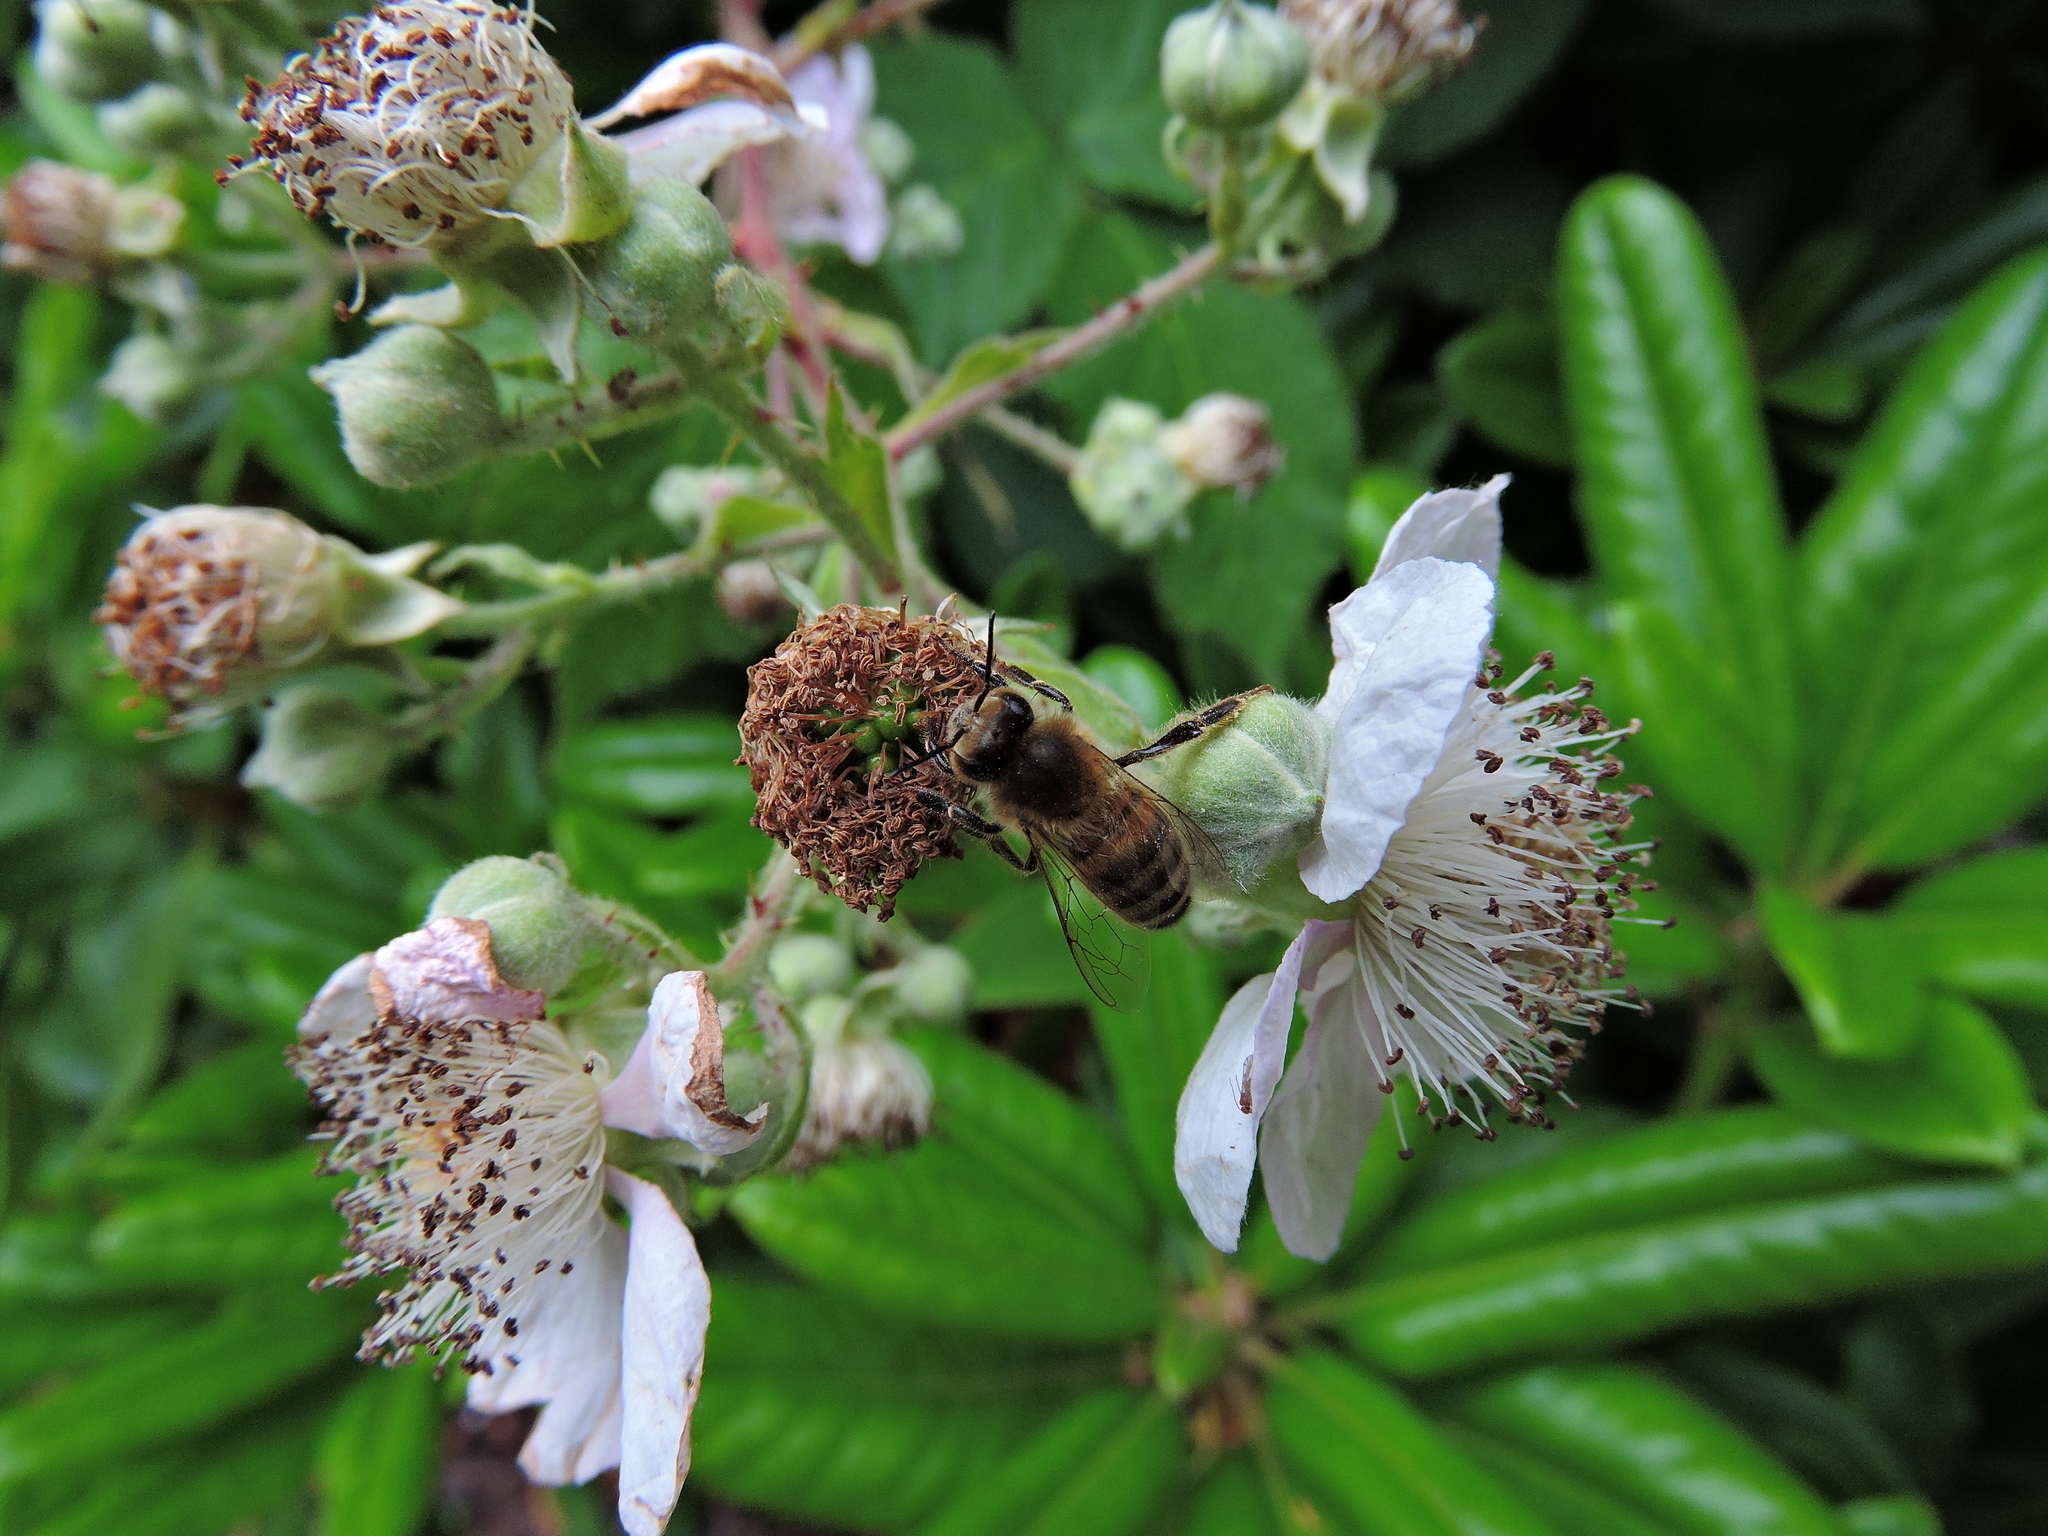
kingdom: Animalia
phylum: Arthropoda
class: Insecta
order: Hymenoptera
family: Apidae
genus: Apis
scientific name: Apis mellifera
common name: Honey bee
